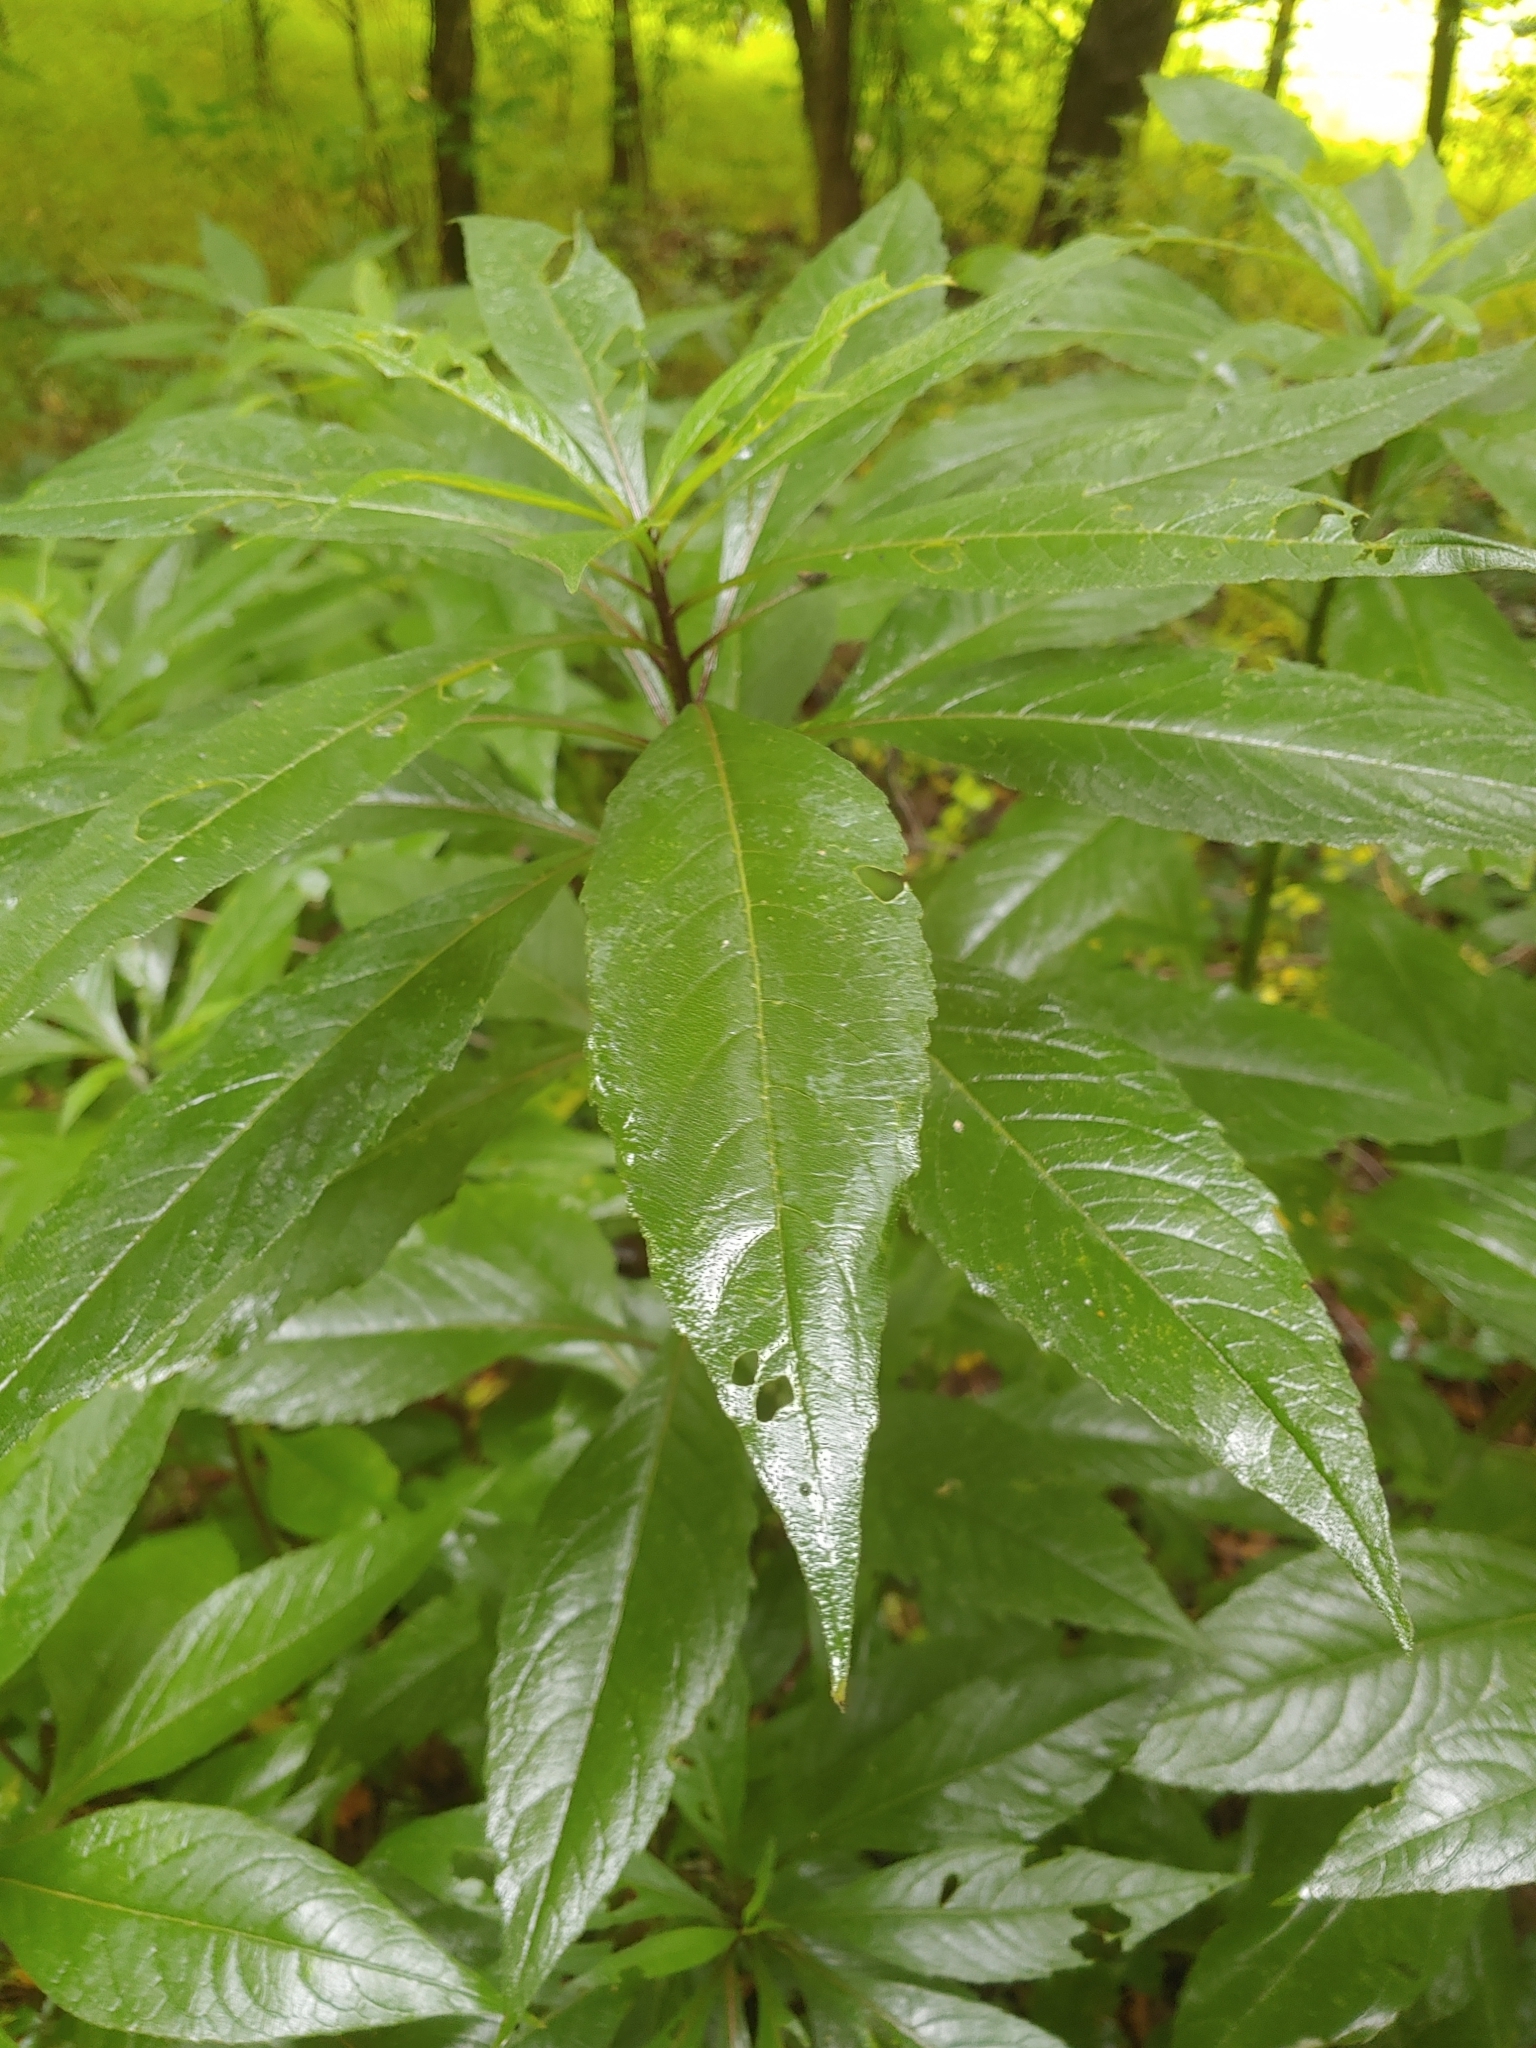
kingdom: Plantae
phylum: Tracheophyta
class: Magnoliopsida
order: Asterales
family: Asteraceae
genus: Verbesina
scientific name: Verbesina alternifolia
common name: Wingstem
